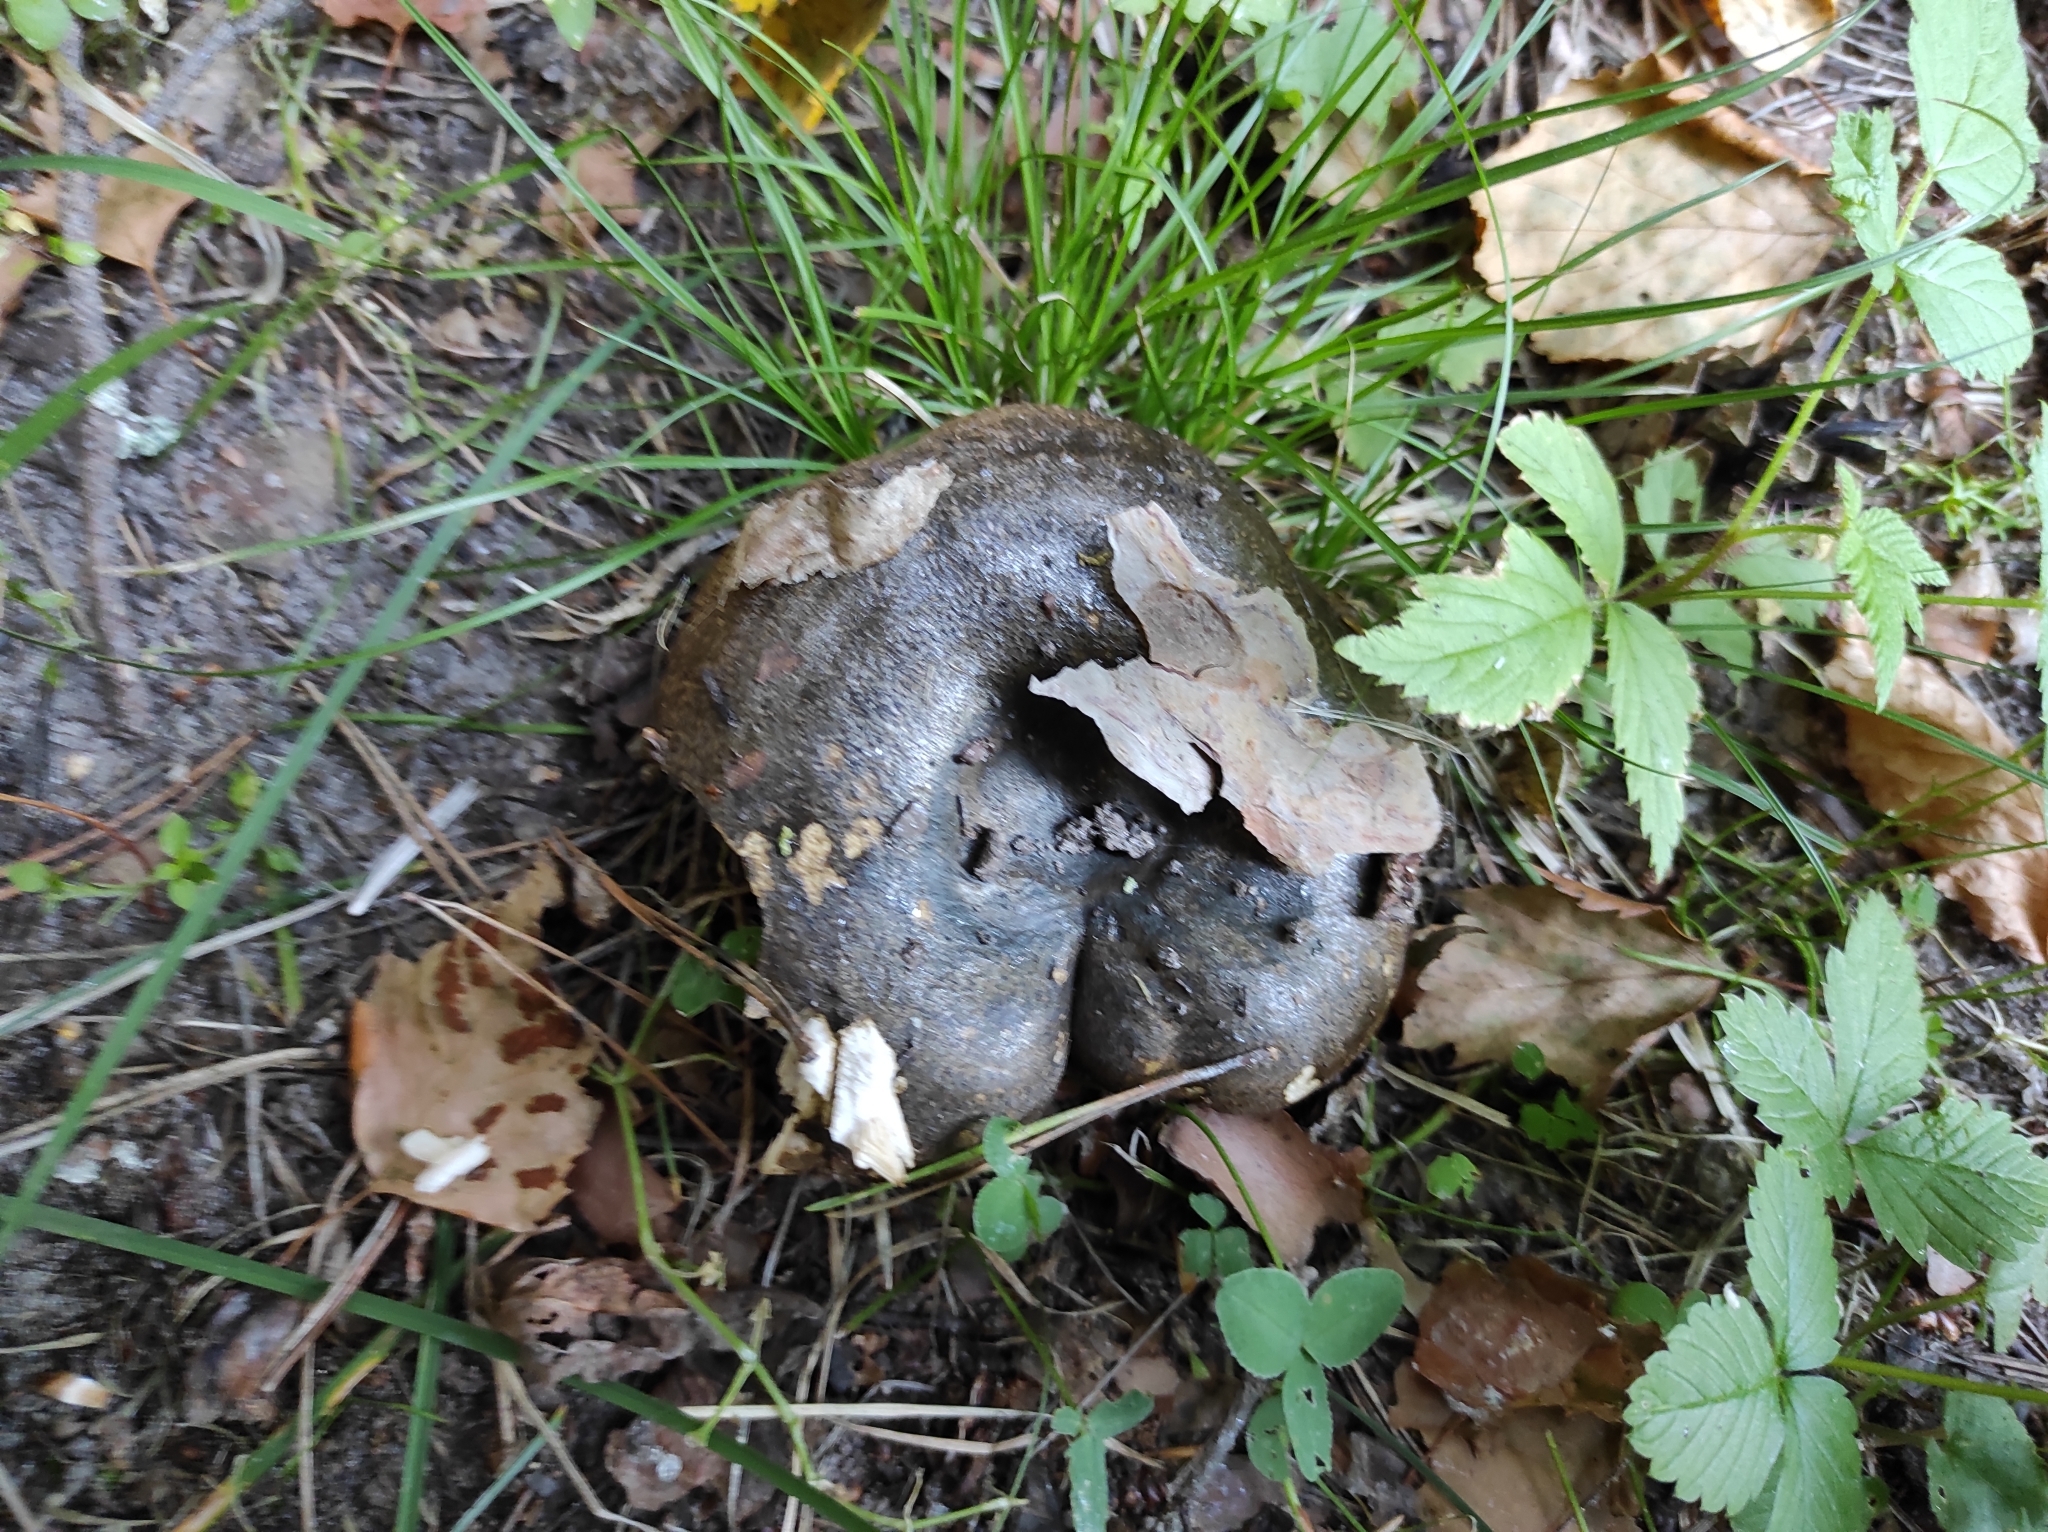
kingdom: Fungi
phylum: Basidiomycota
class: Agaricomycetes
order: Russulales
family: Russulaceae
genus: Lactarius
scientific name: Lactarius turpis
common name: Ugly milk-cap
